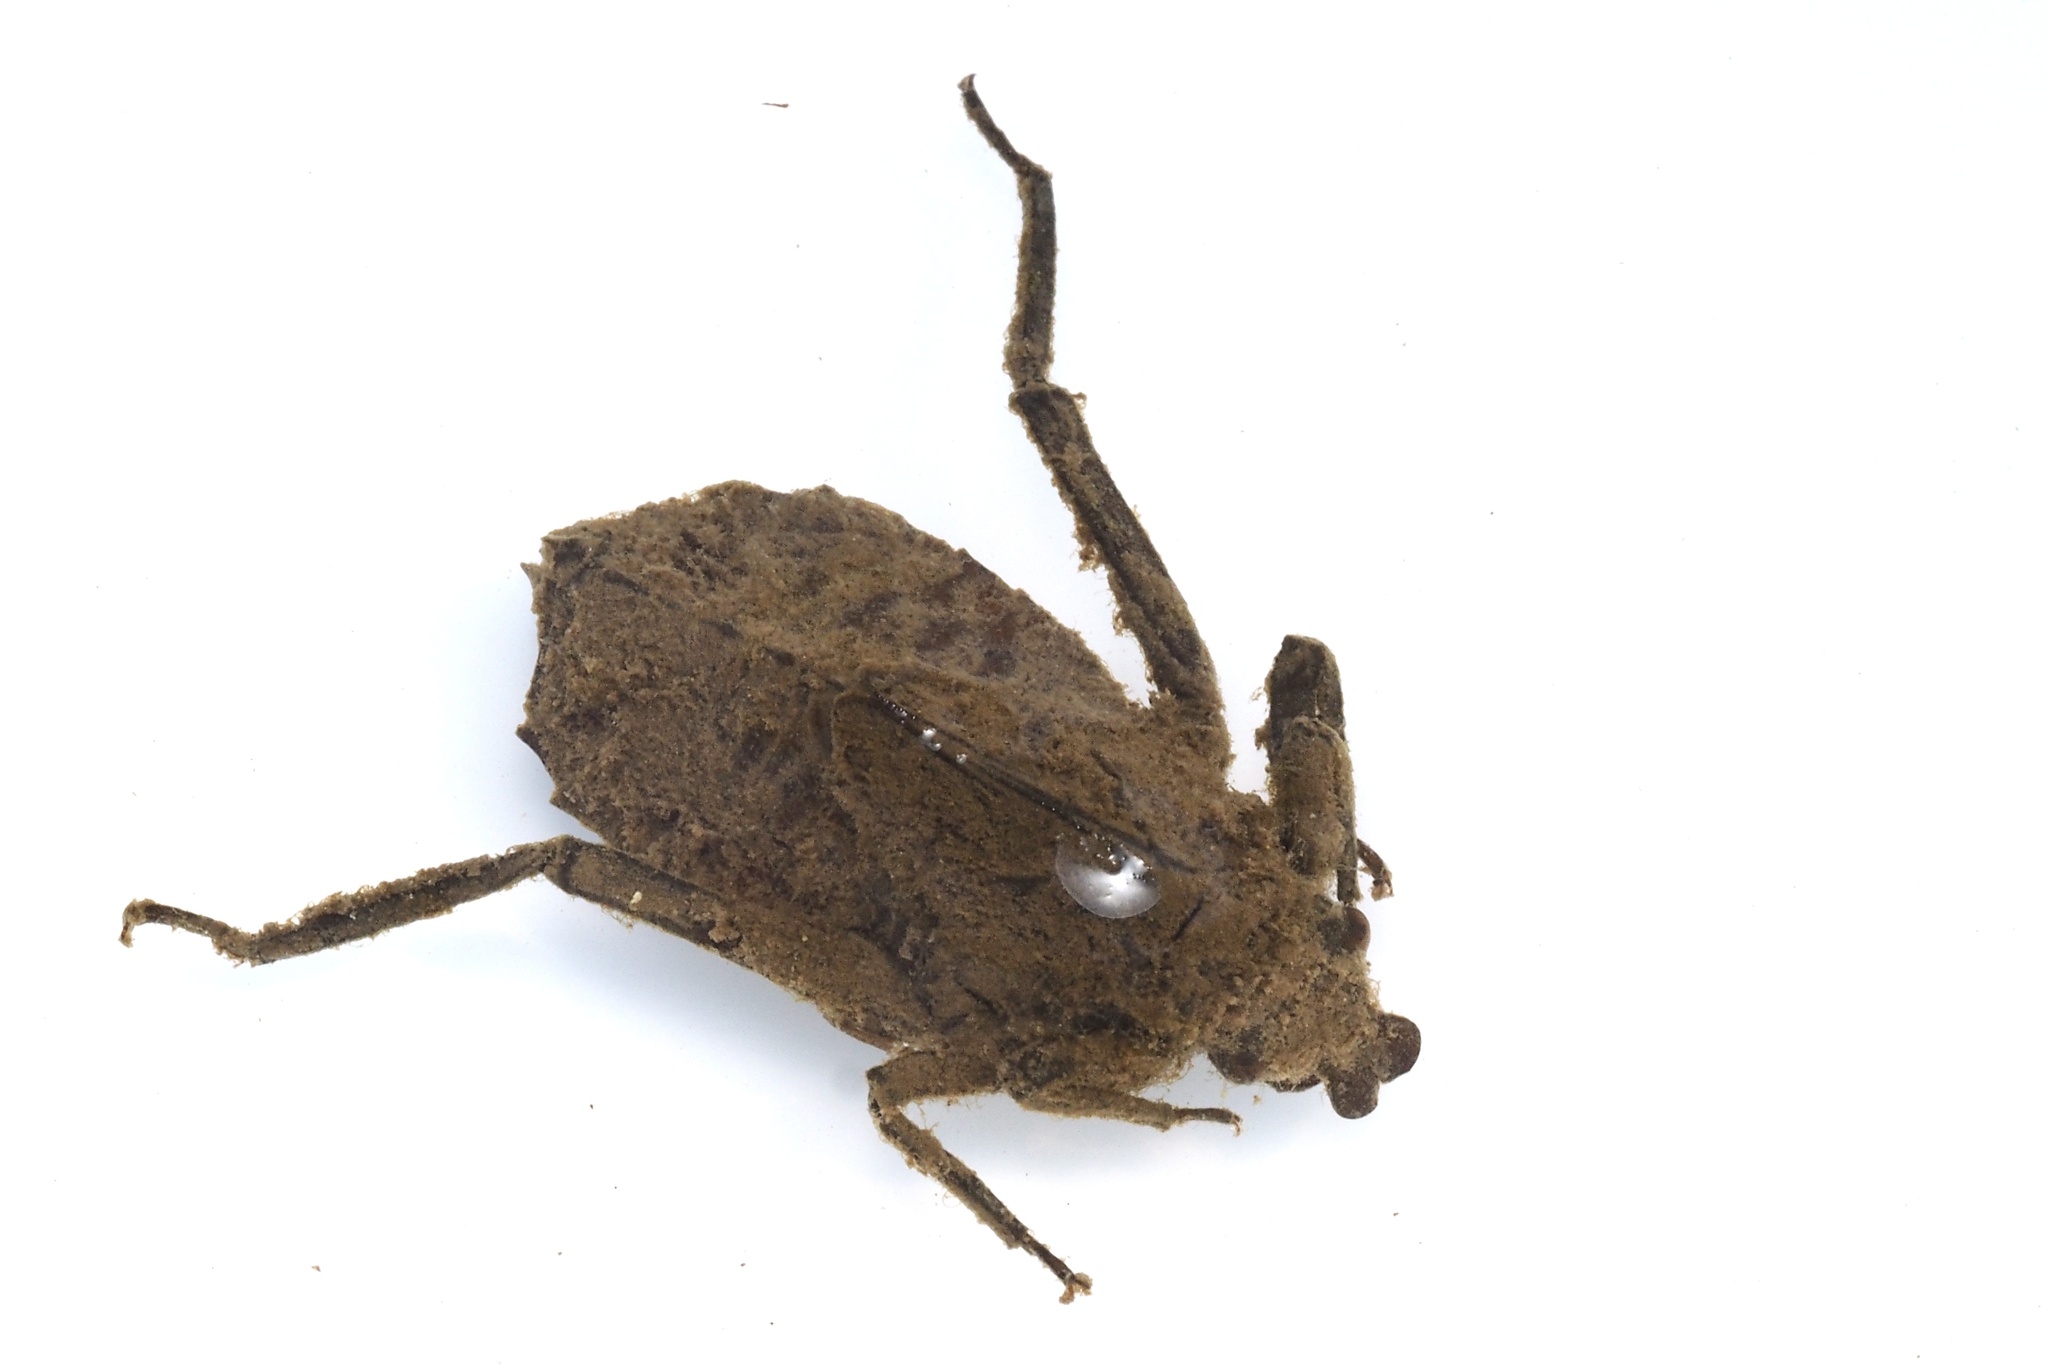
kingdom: Animalia
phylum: Arthropoda
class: Insecta
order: Odonata
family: Gomphidae
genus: Sieboldius
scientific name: Sieboldius albardae
